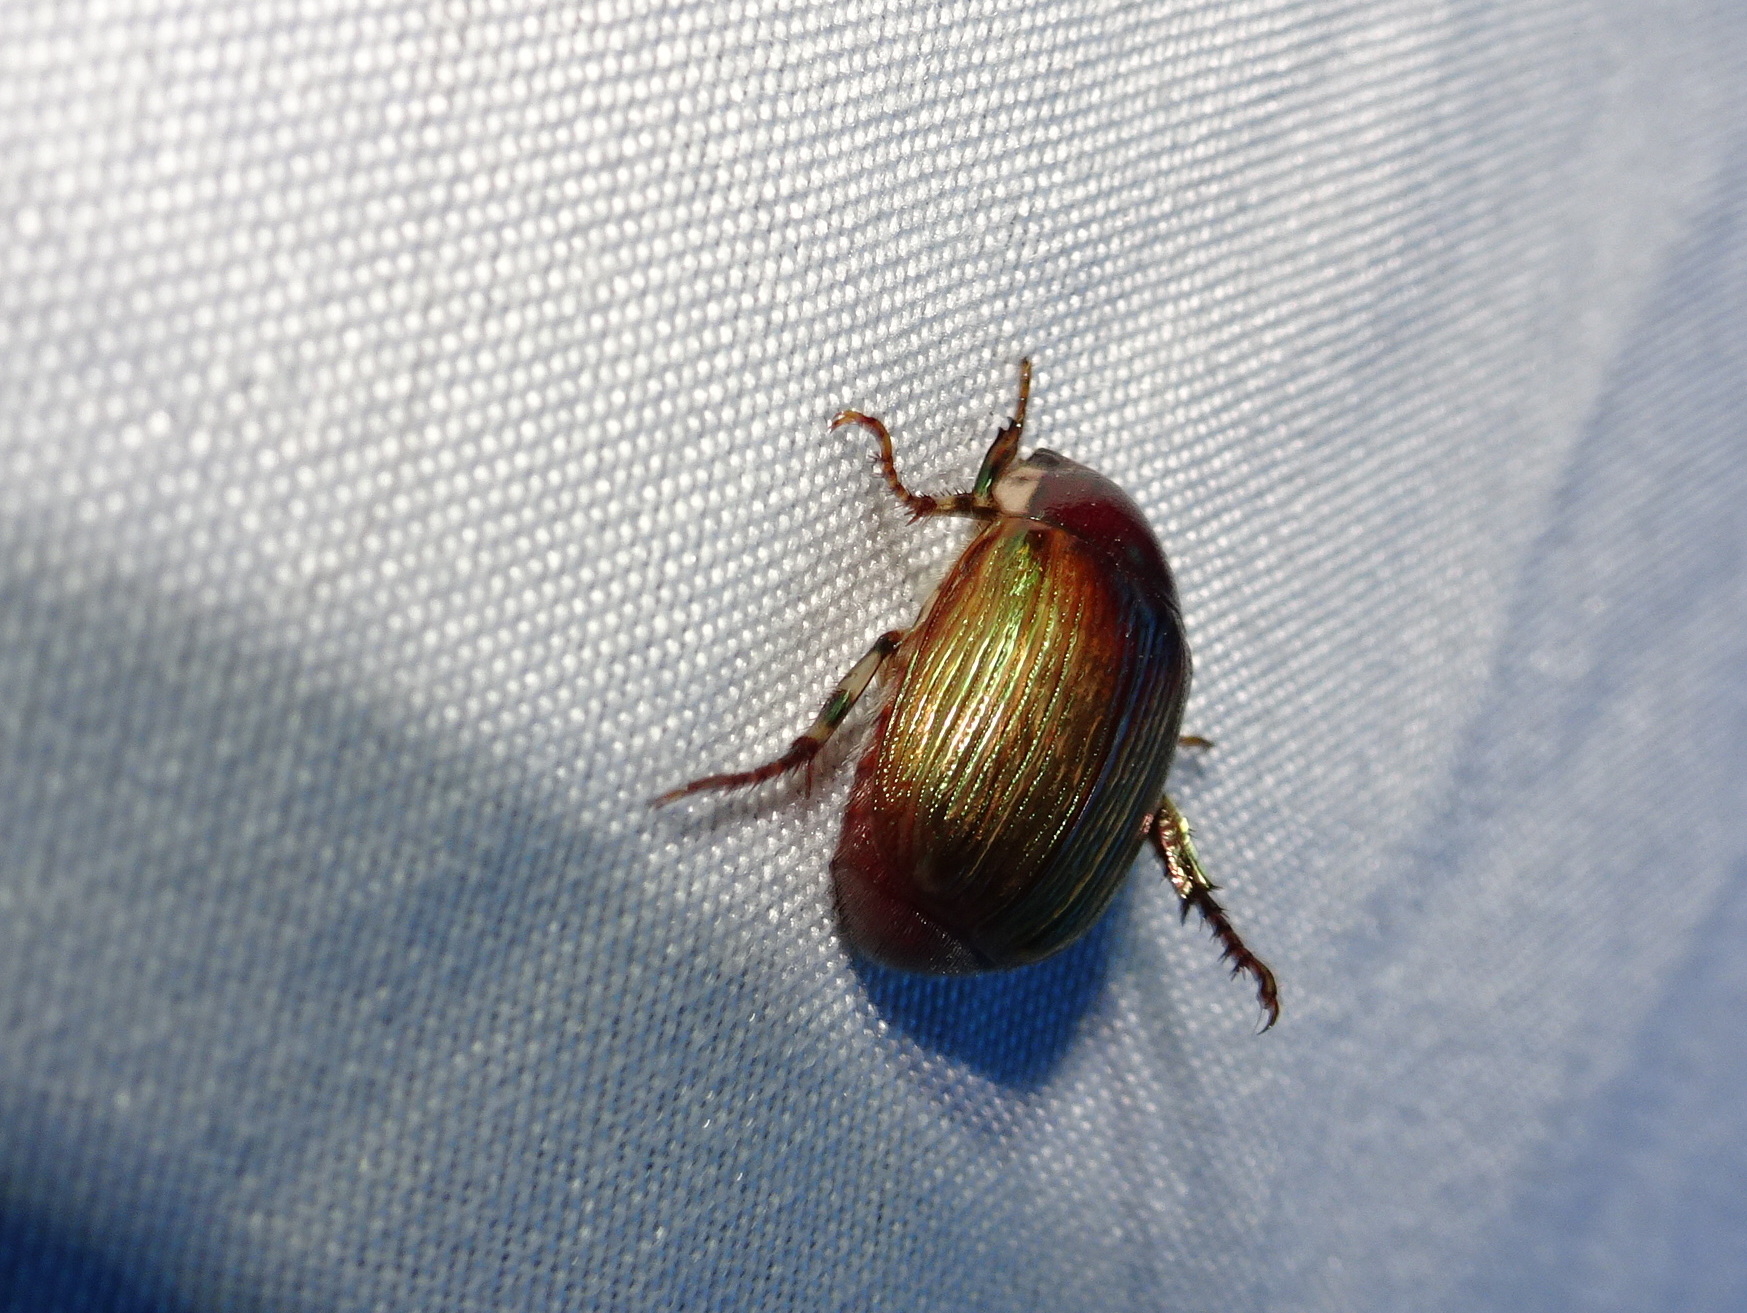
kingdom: Animalia
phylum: Arthropoda
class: Insecta
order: Coleoptera
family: Scarabaeidae
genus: Callistethus
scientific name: Callistethus marginatus
